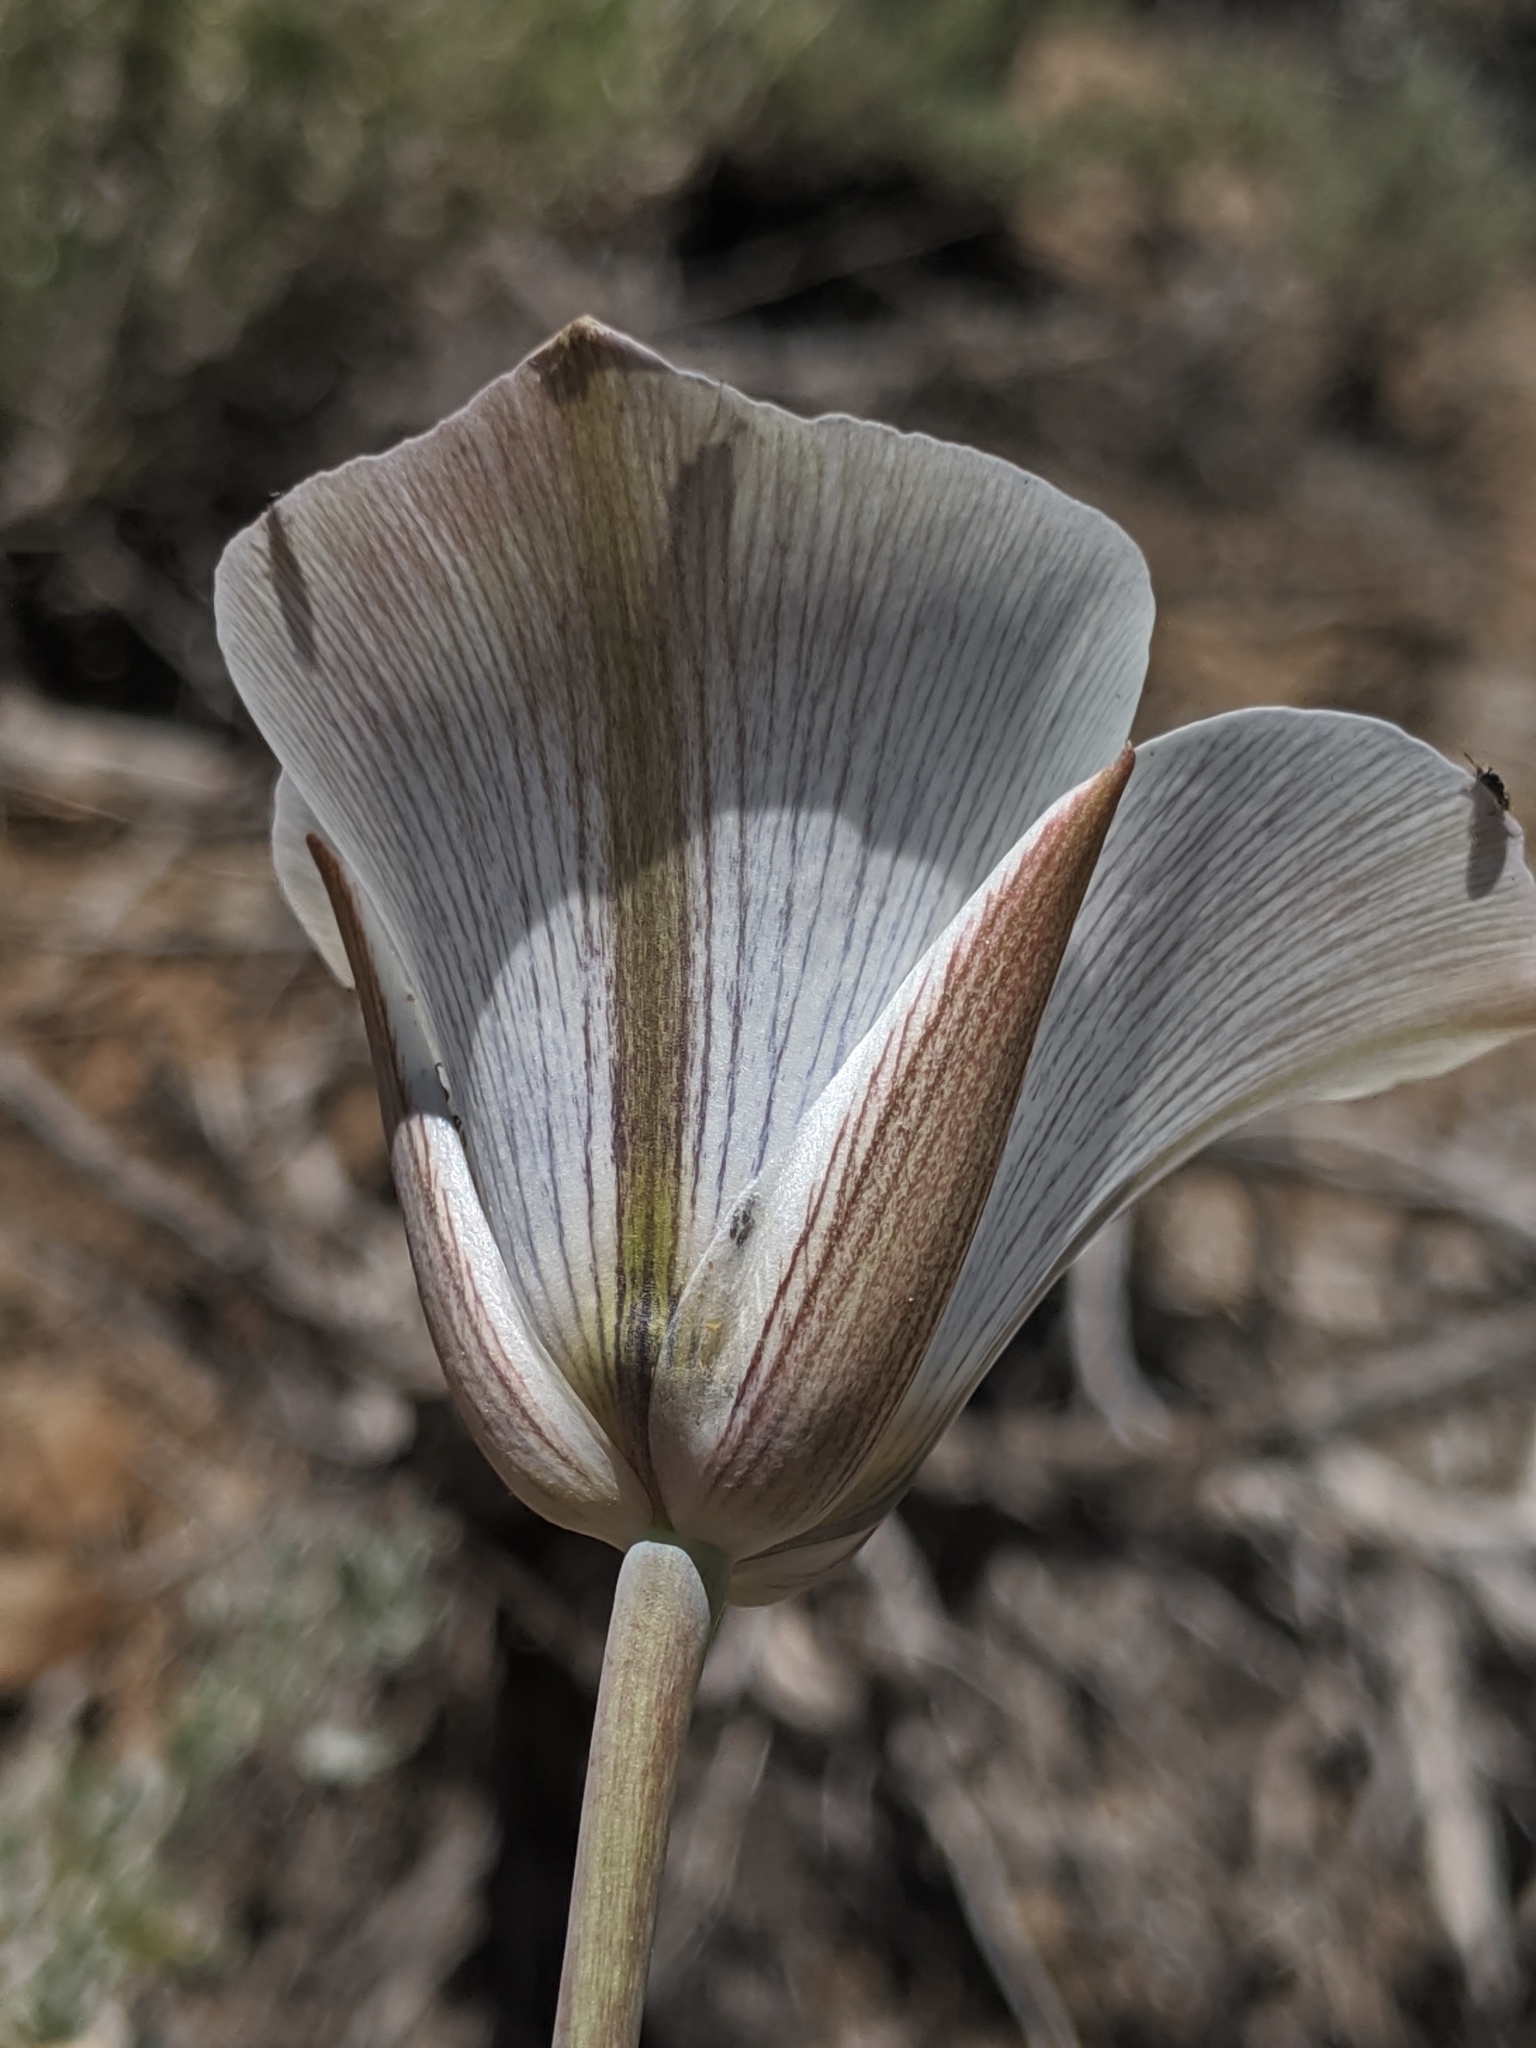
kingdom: Plantae
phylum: Tracheophyta
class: Liliopsida
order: Liliales
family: Liliaceae
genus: Calochortus
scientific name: Calochortus bruneaunis
